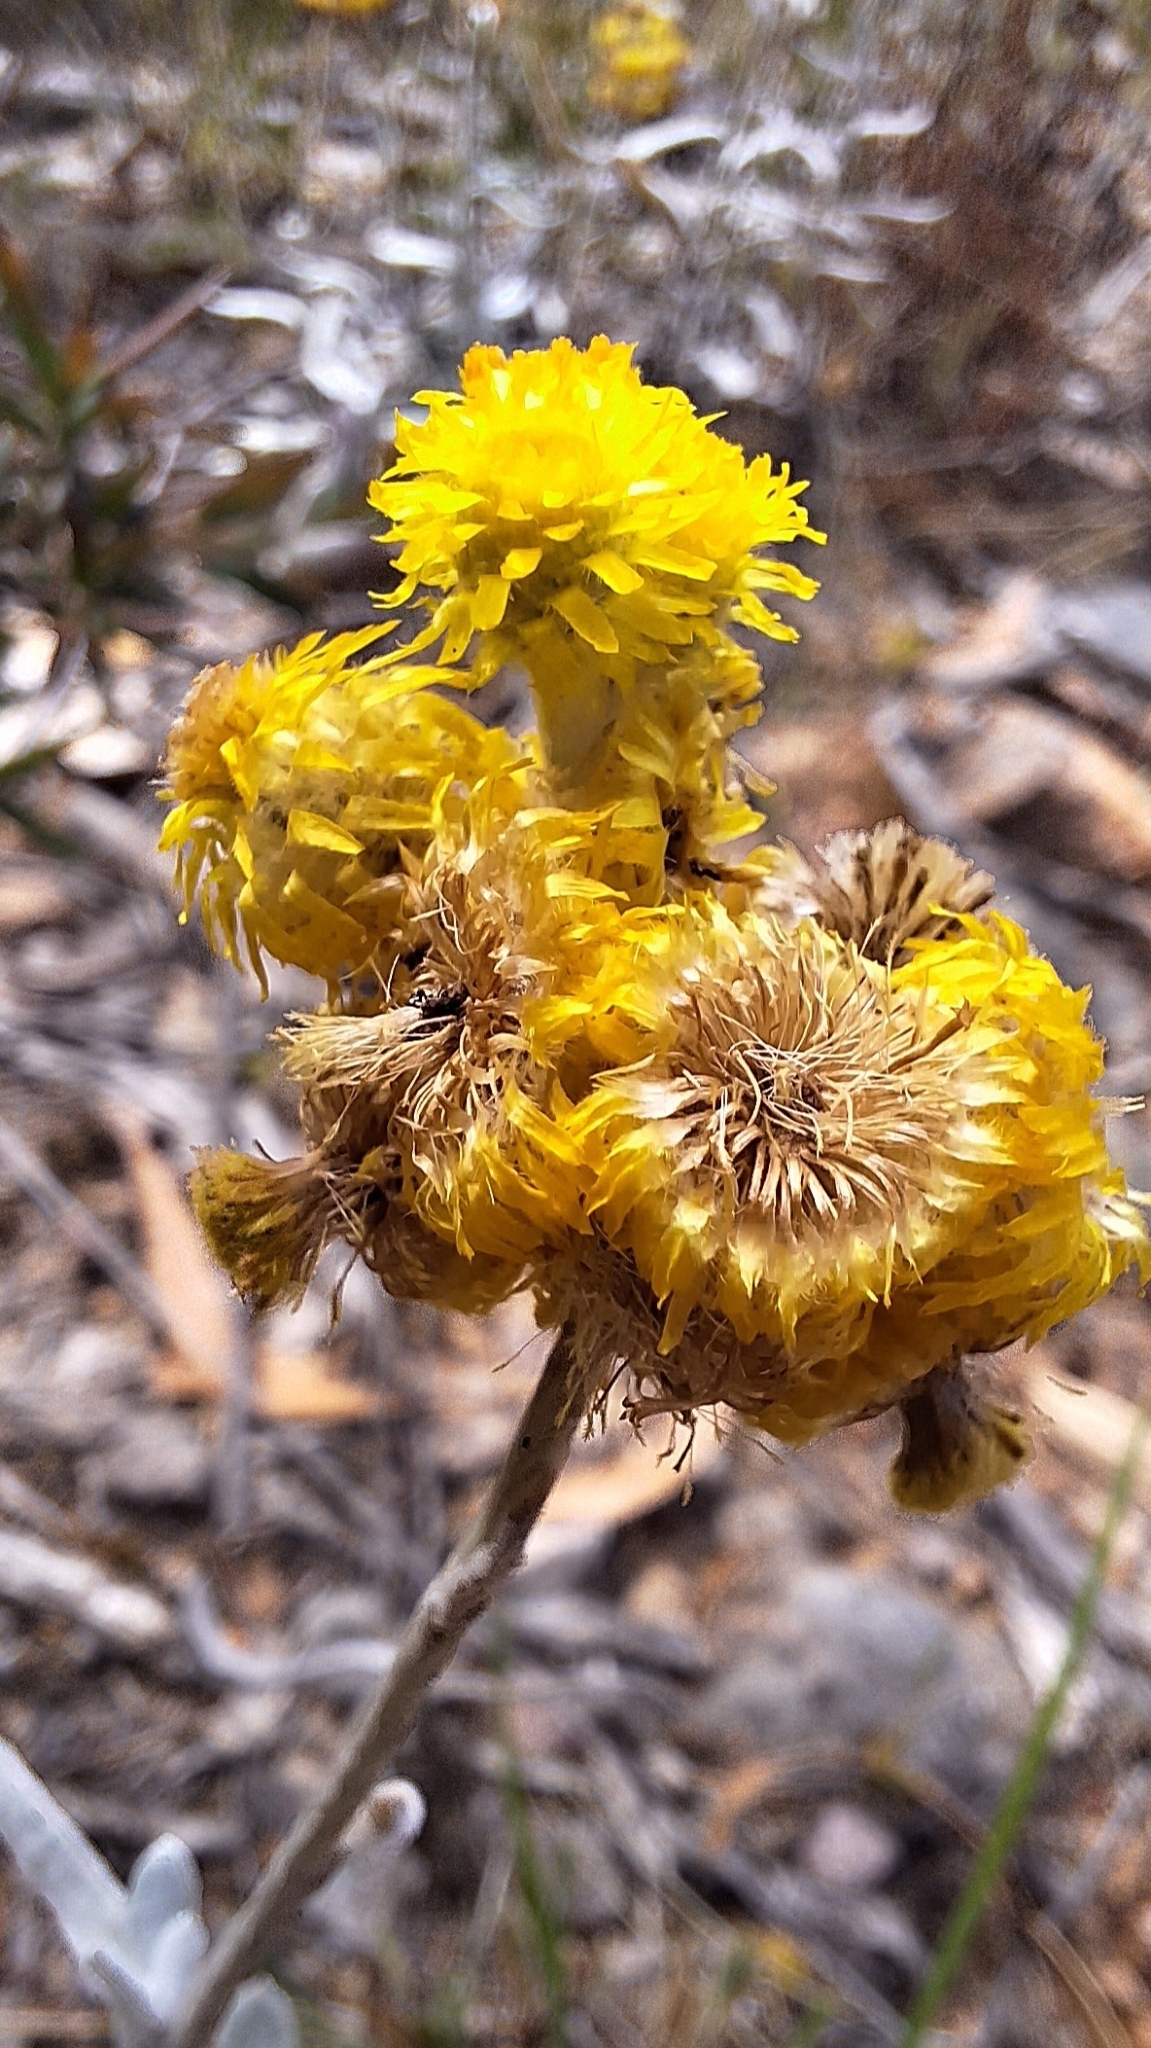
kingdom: Plantae
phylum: Tracheophyta
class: Magnoliopsida
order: Asterales
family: Asteraceae
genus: Chrysocephalum
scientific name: Chrysocephalum apiculatum
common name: Common everlasting
